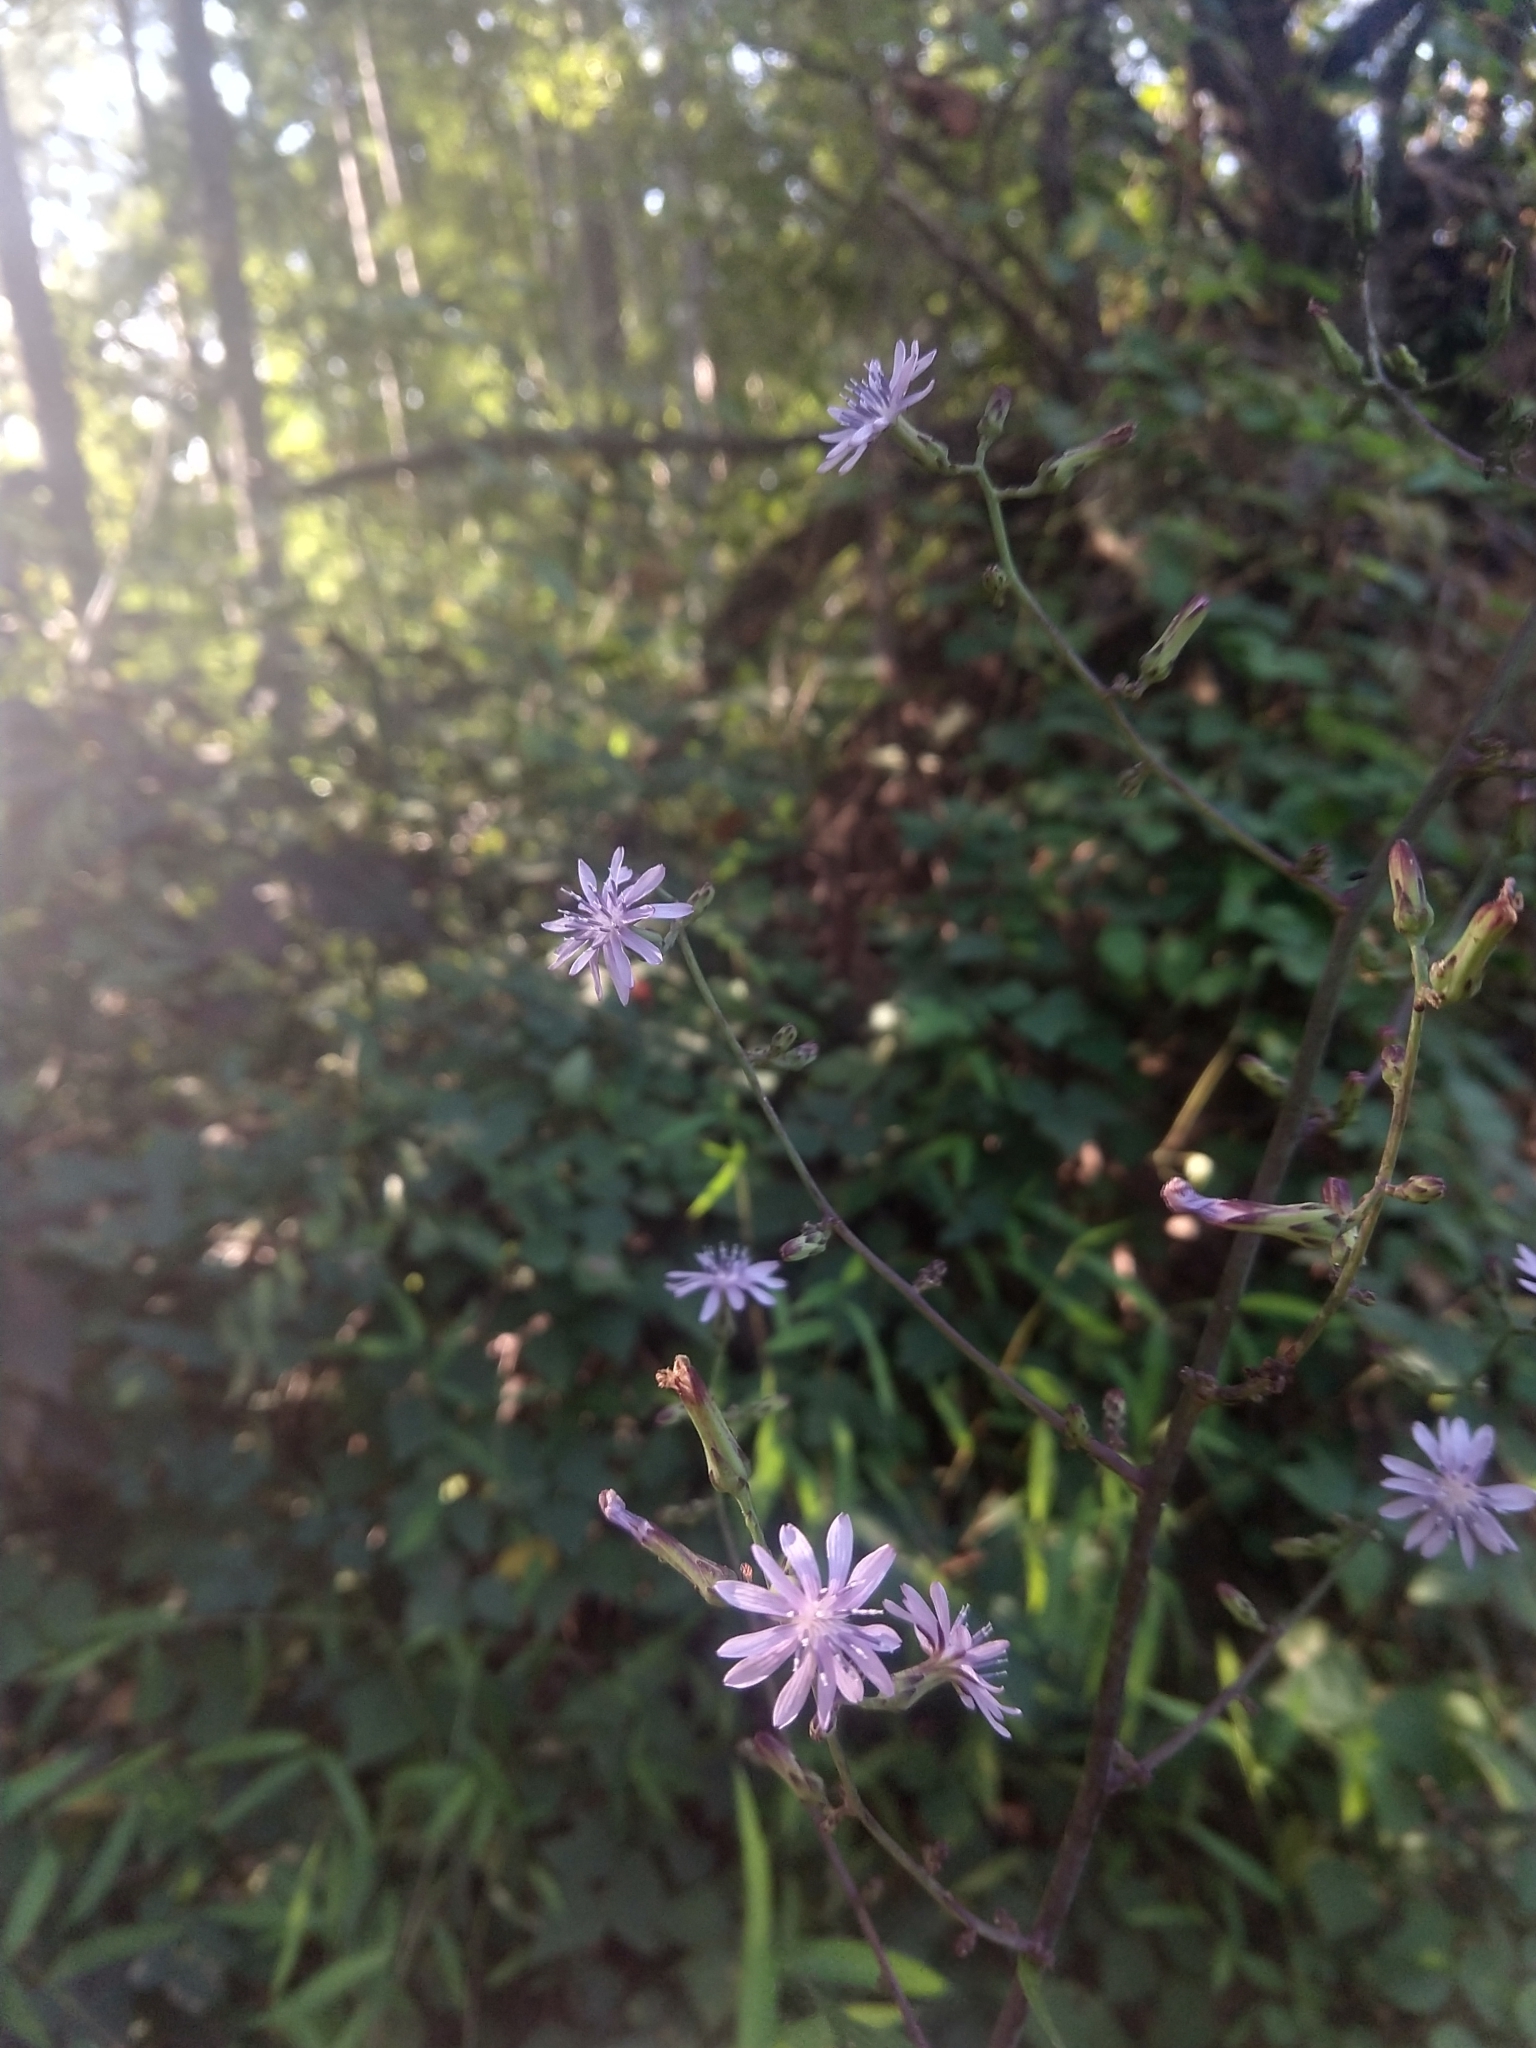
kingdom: Plantae
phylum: Tracheophyta
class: Magnoliopsida
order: Asterales
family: Asteraceae
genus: Lactuca
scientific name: Lactuca floridana
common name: Woodland lettuce
